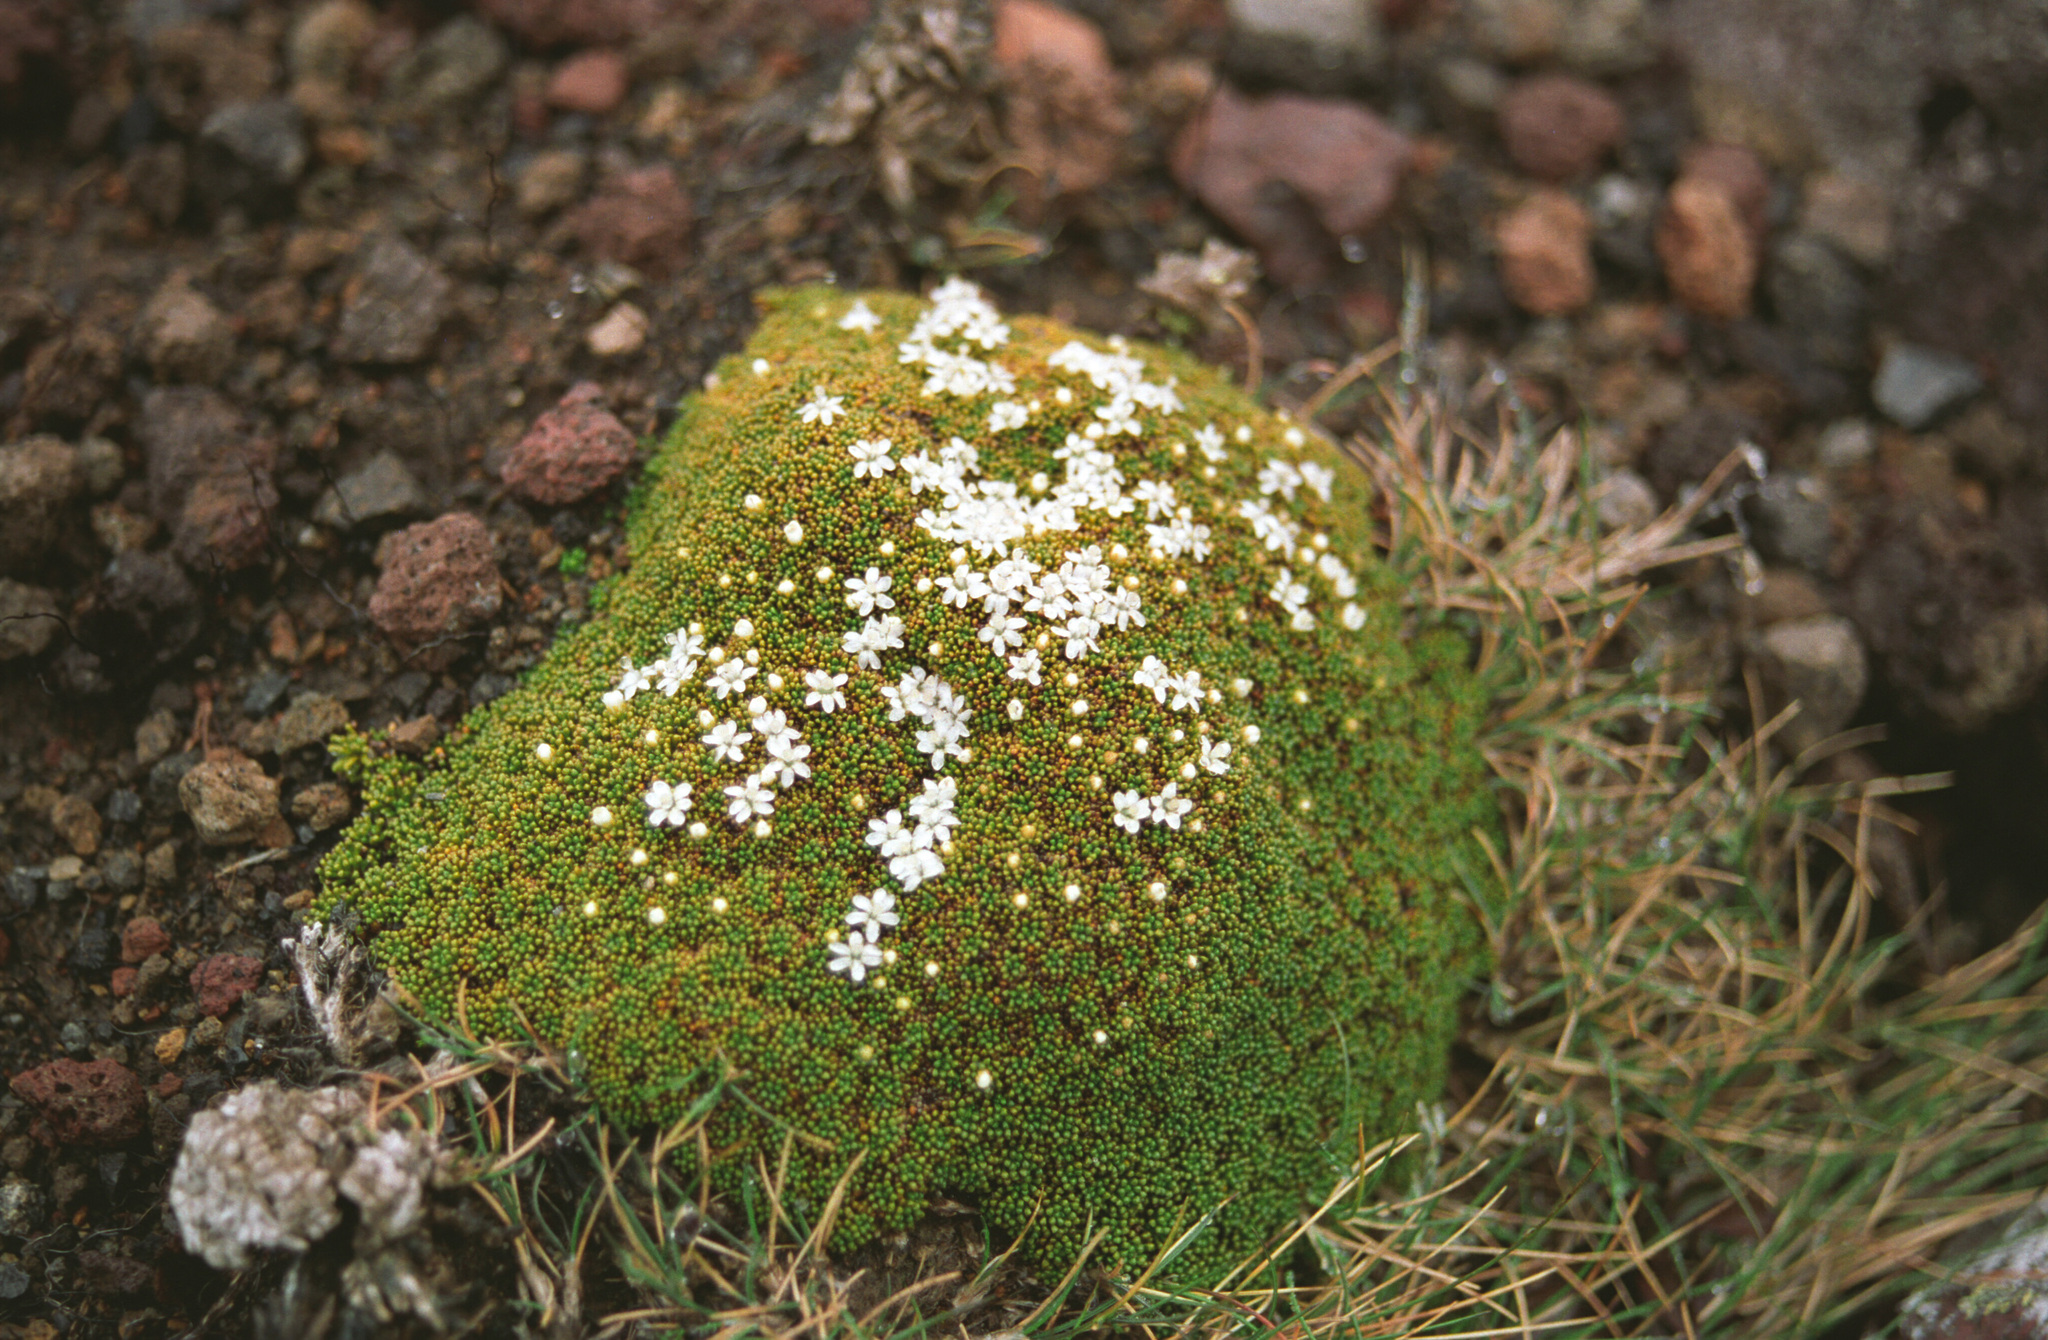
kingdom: Plantae
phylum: Tracheophyta
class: Magnoliopsida
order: Asterales
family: Stylidiaceae
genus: Phyllachne
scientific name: Phyllachne colensoi
